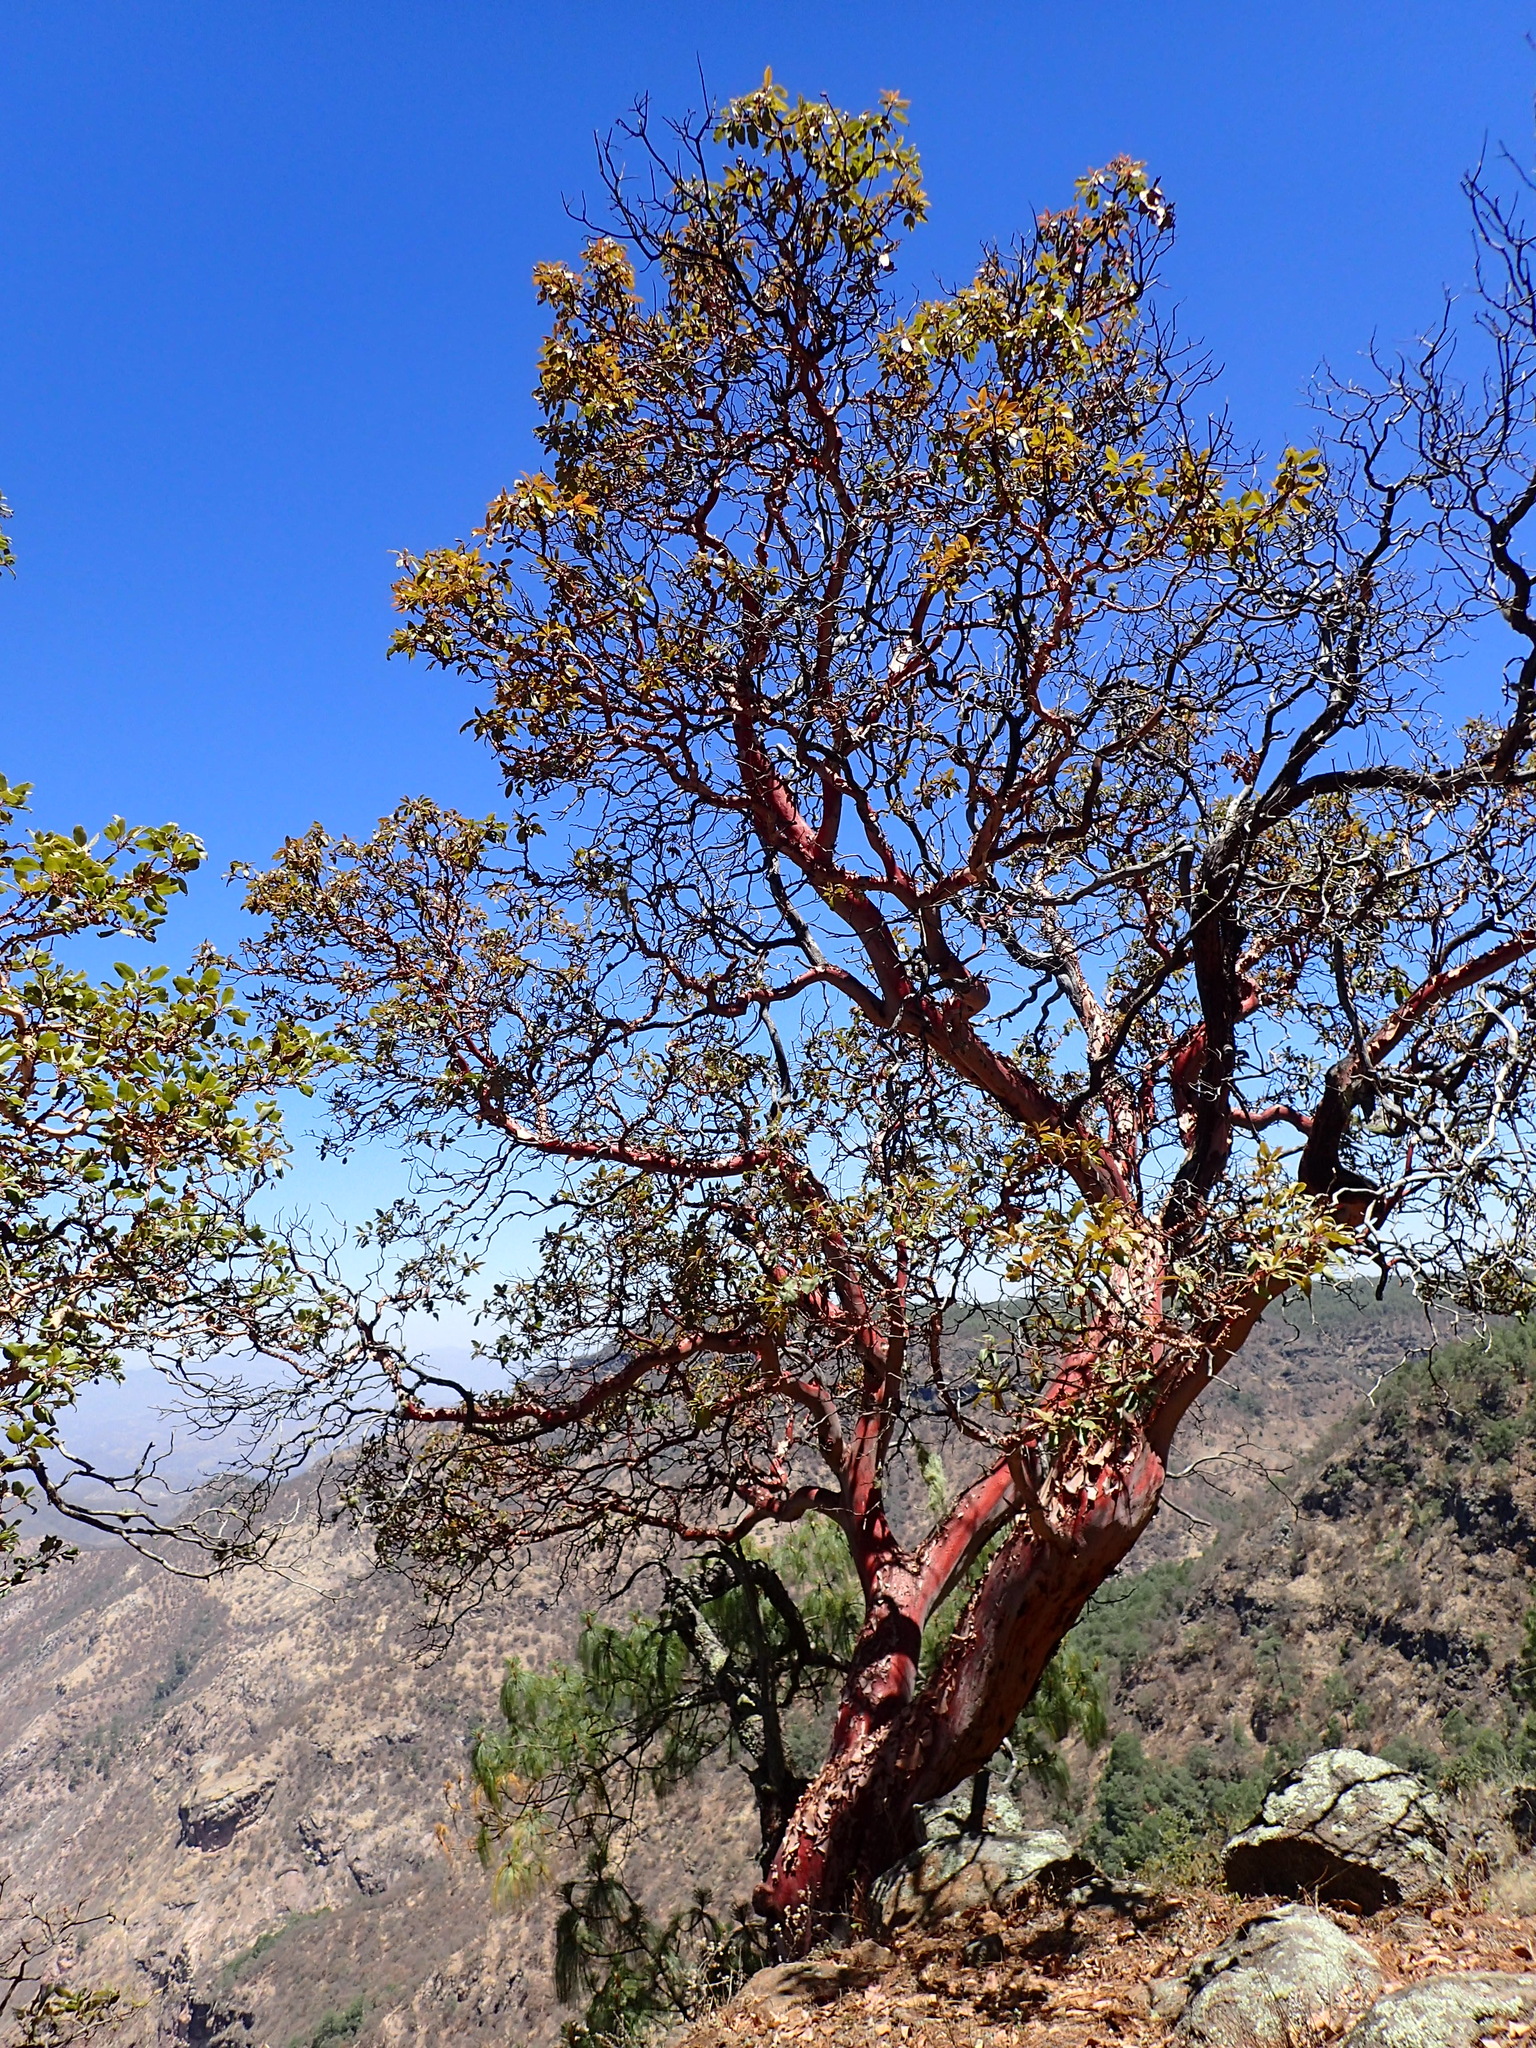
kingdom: Plantae
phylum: Tracheophyta
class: Magnoliopsida
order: Ericales
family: Ericaceae
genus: Arbutus
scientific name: Arbutus xalapensis
